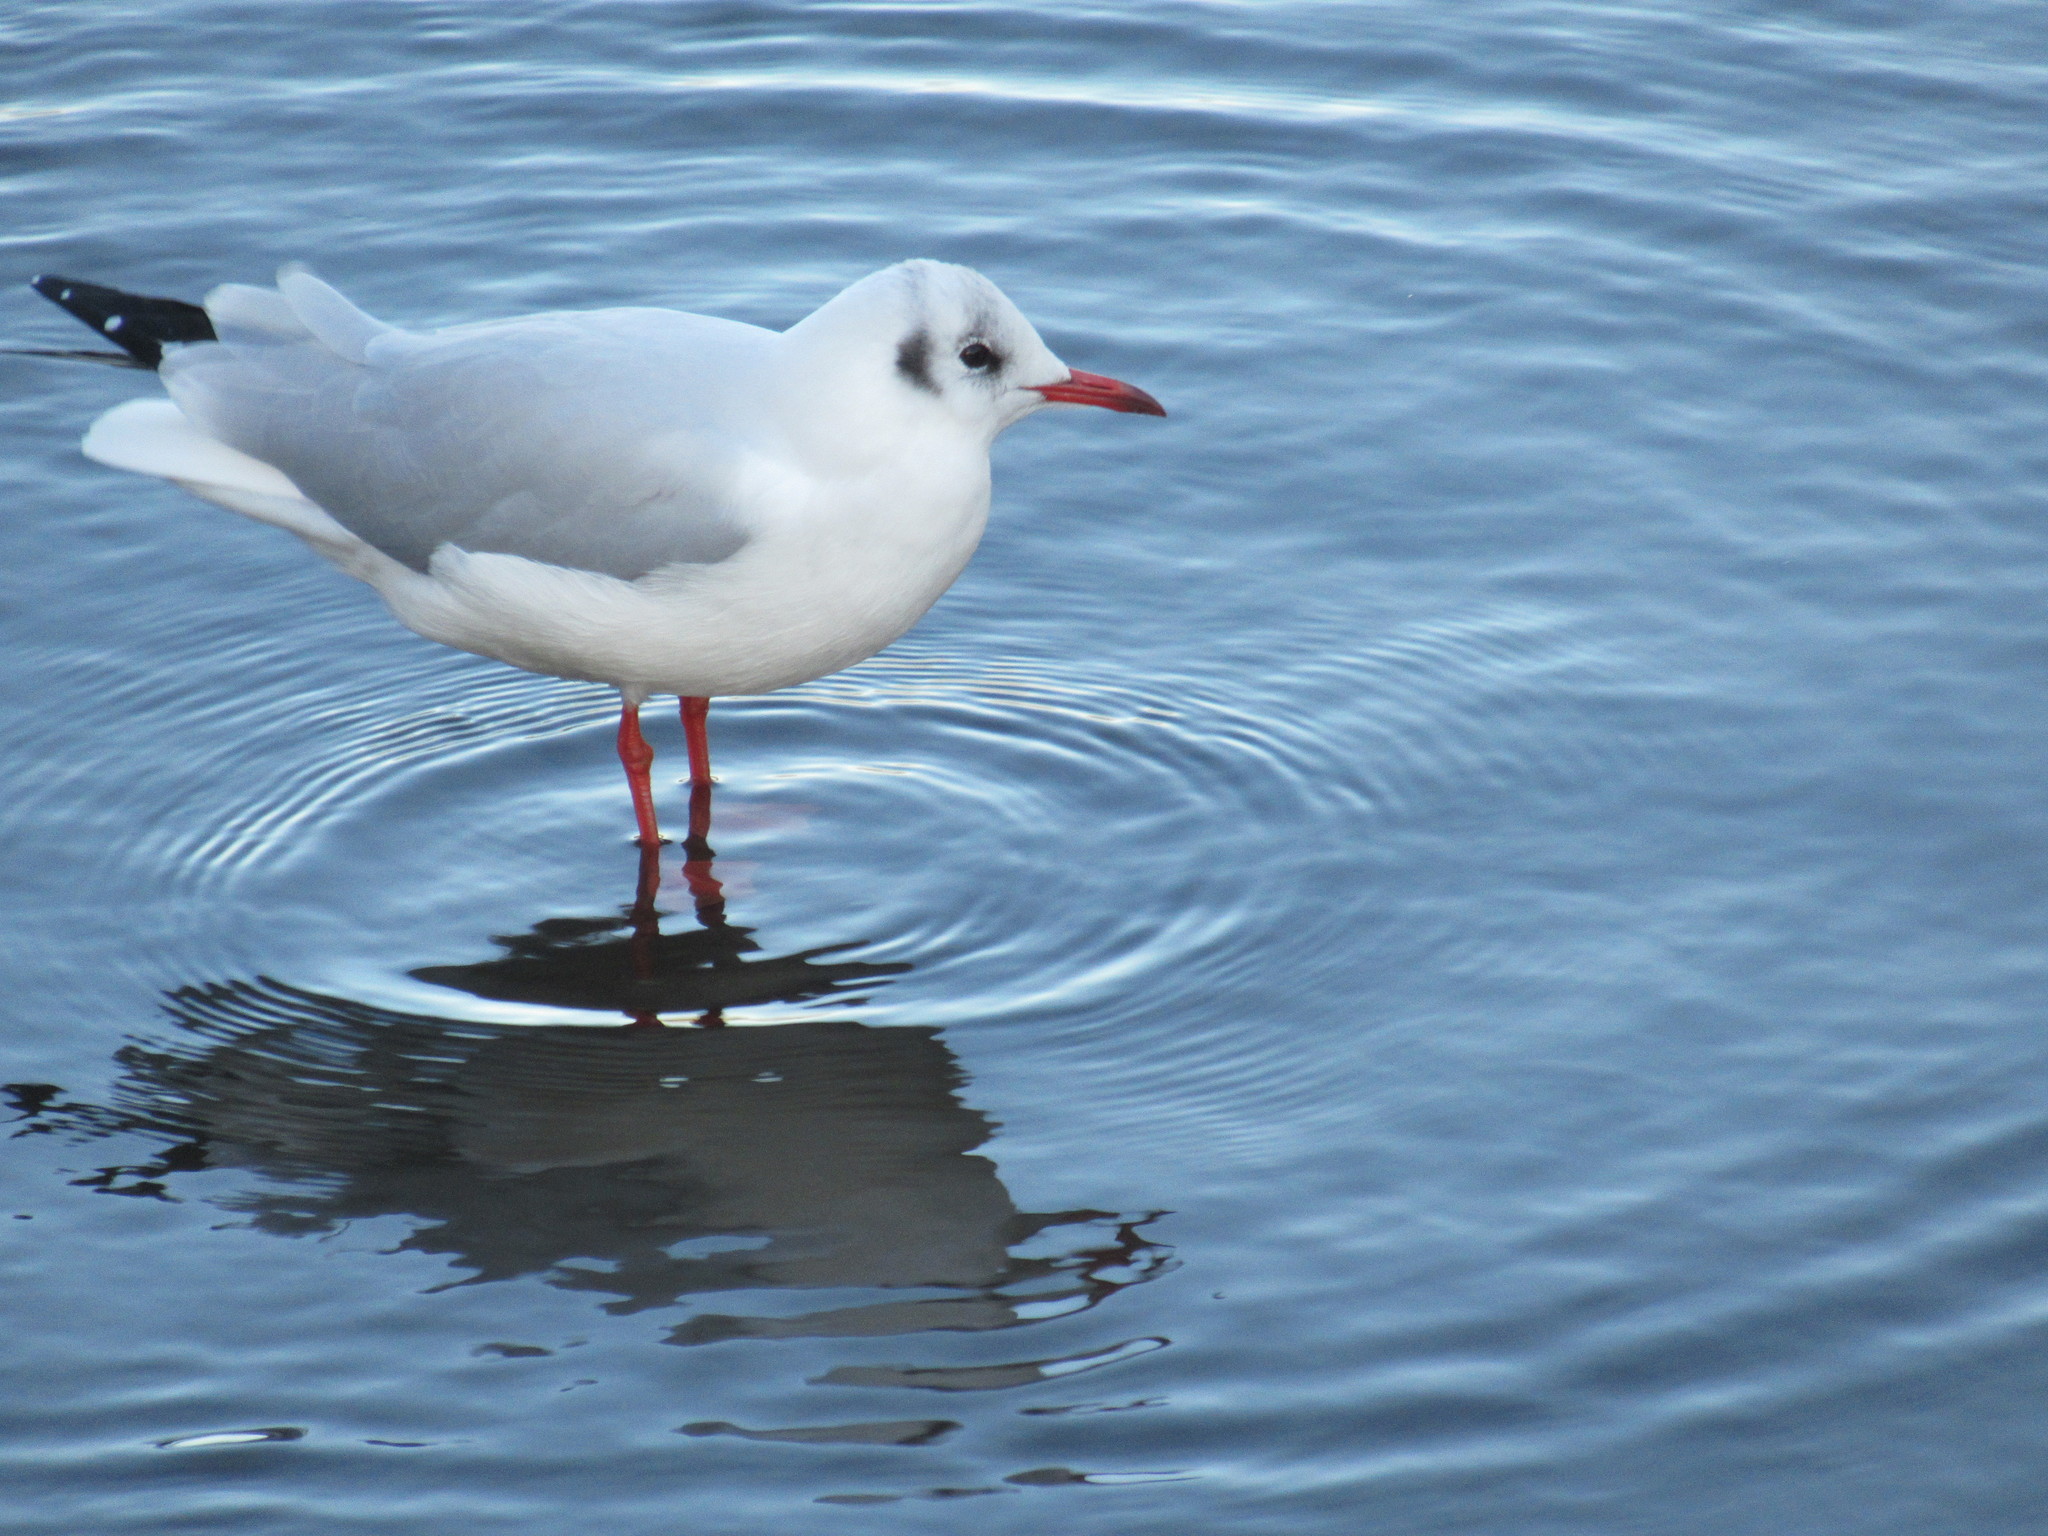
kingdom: Animalia
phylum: Chordata
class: Aves
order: Charadriiformes
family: Laridae
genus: Chroicocephalus
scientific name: Chroicocephalus ridibundus
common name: Black-headed gull
